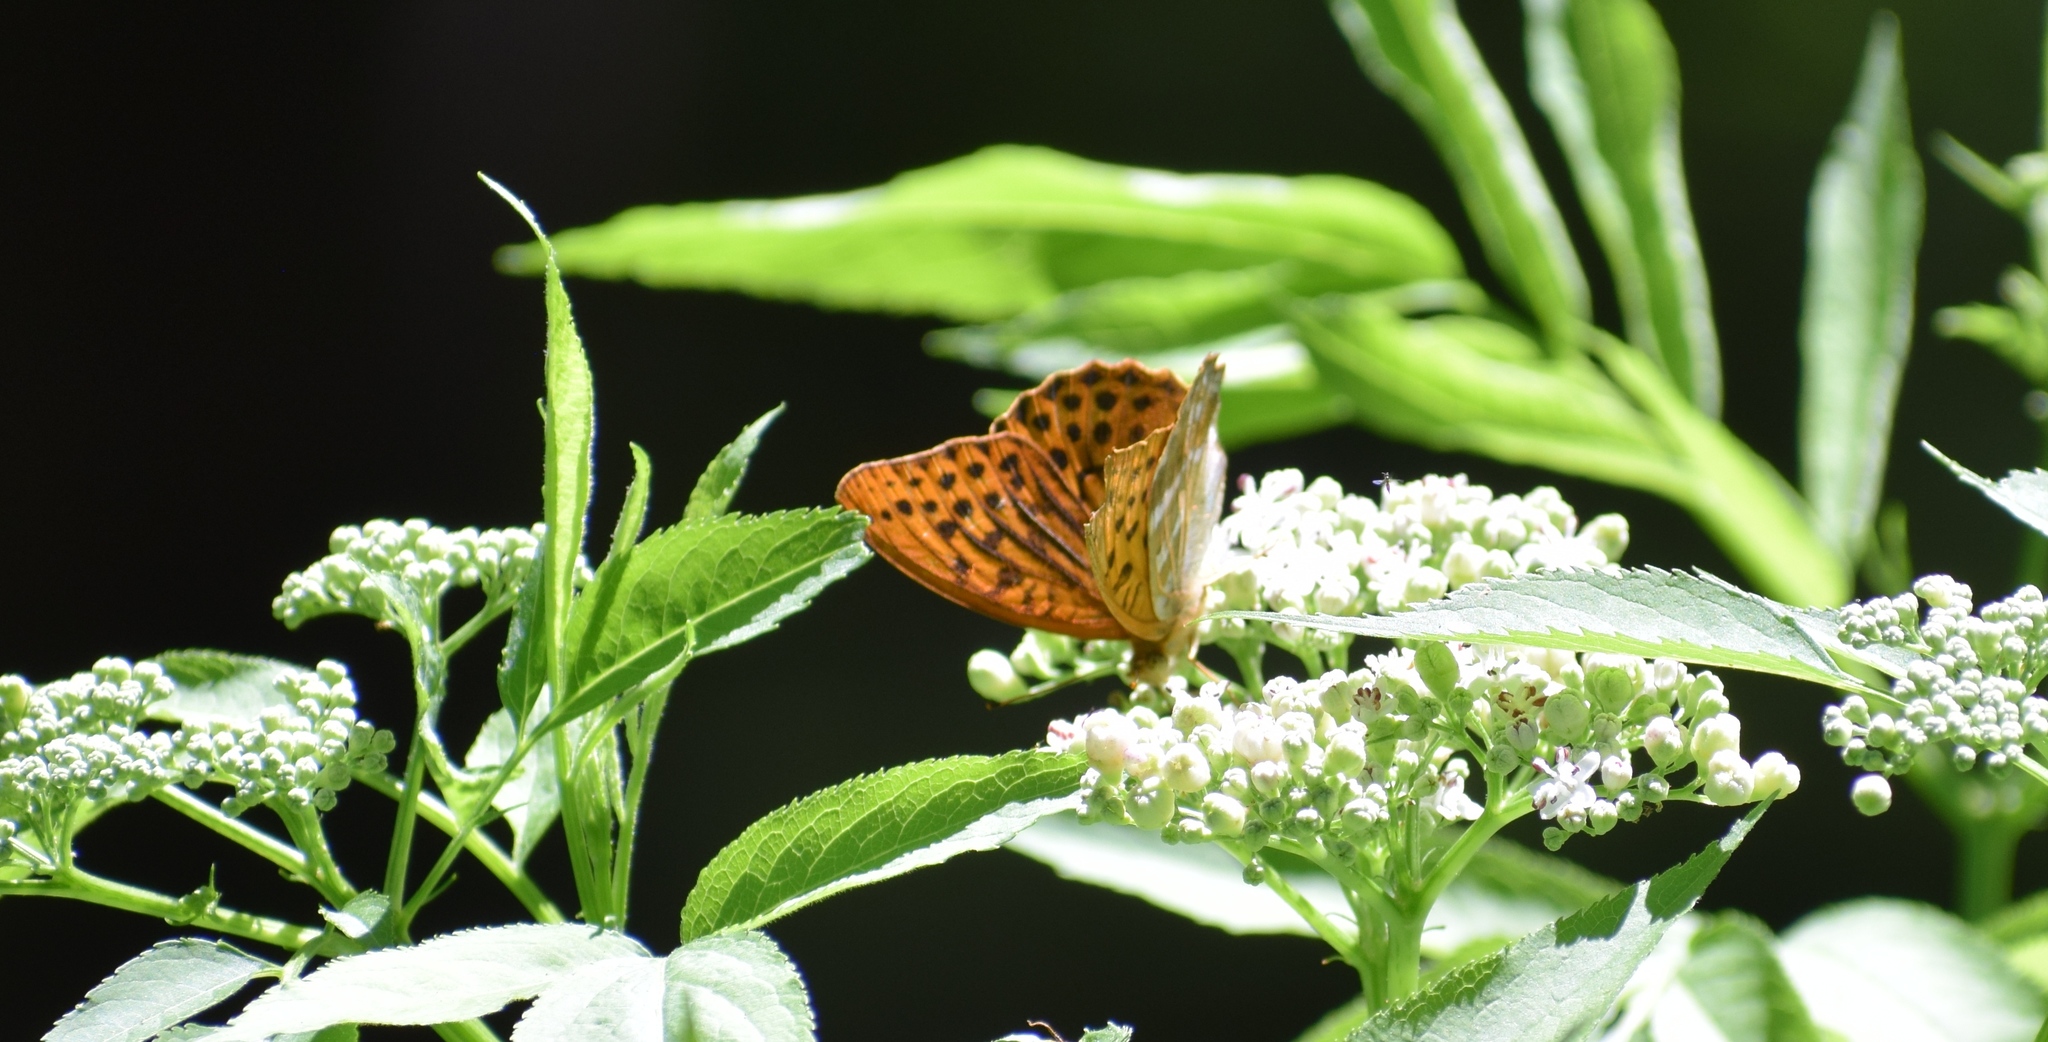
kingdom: Animalia
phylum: Arthropoda
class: Insecta
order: Lepidoptera
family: Nymphalidae
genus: Argynnis
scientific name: Argynnis paphia
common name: Silver-washed fritillary
